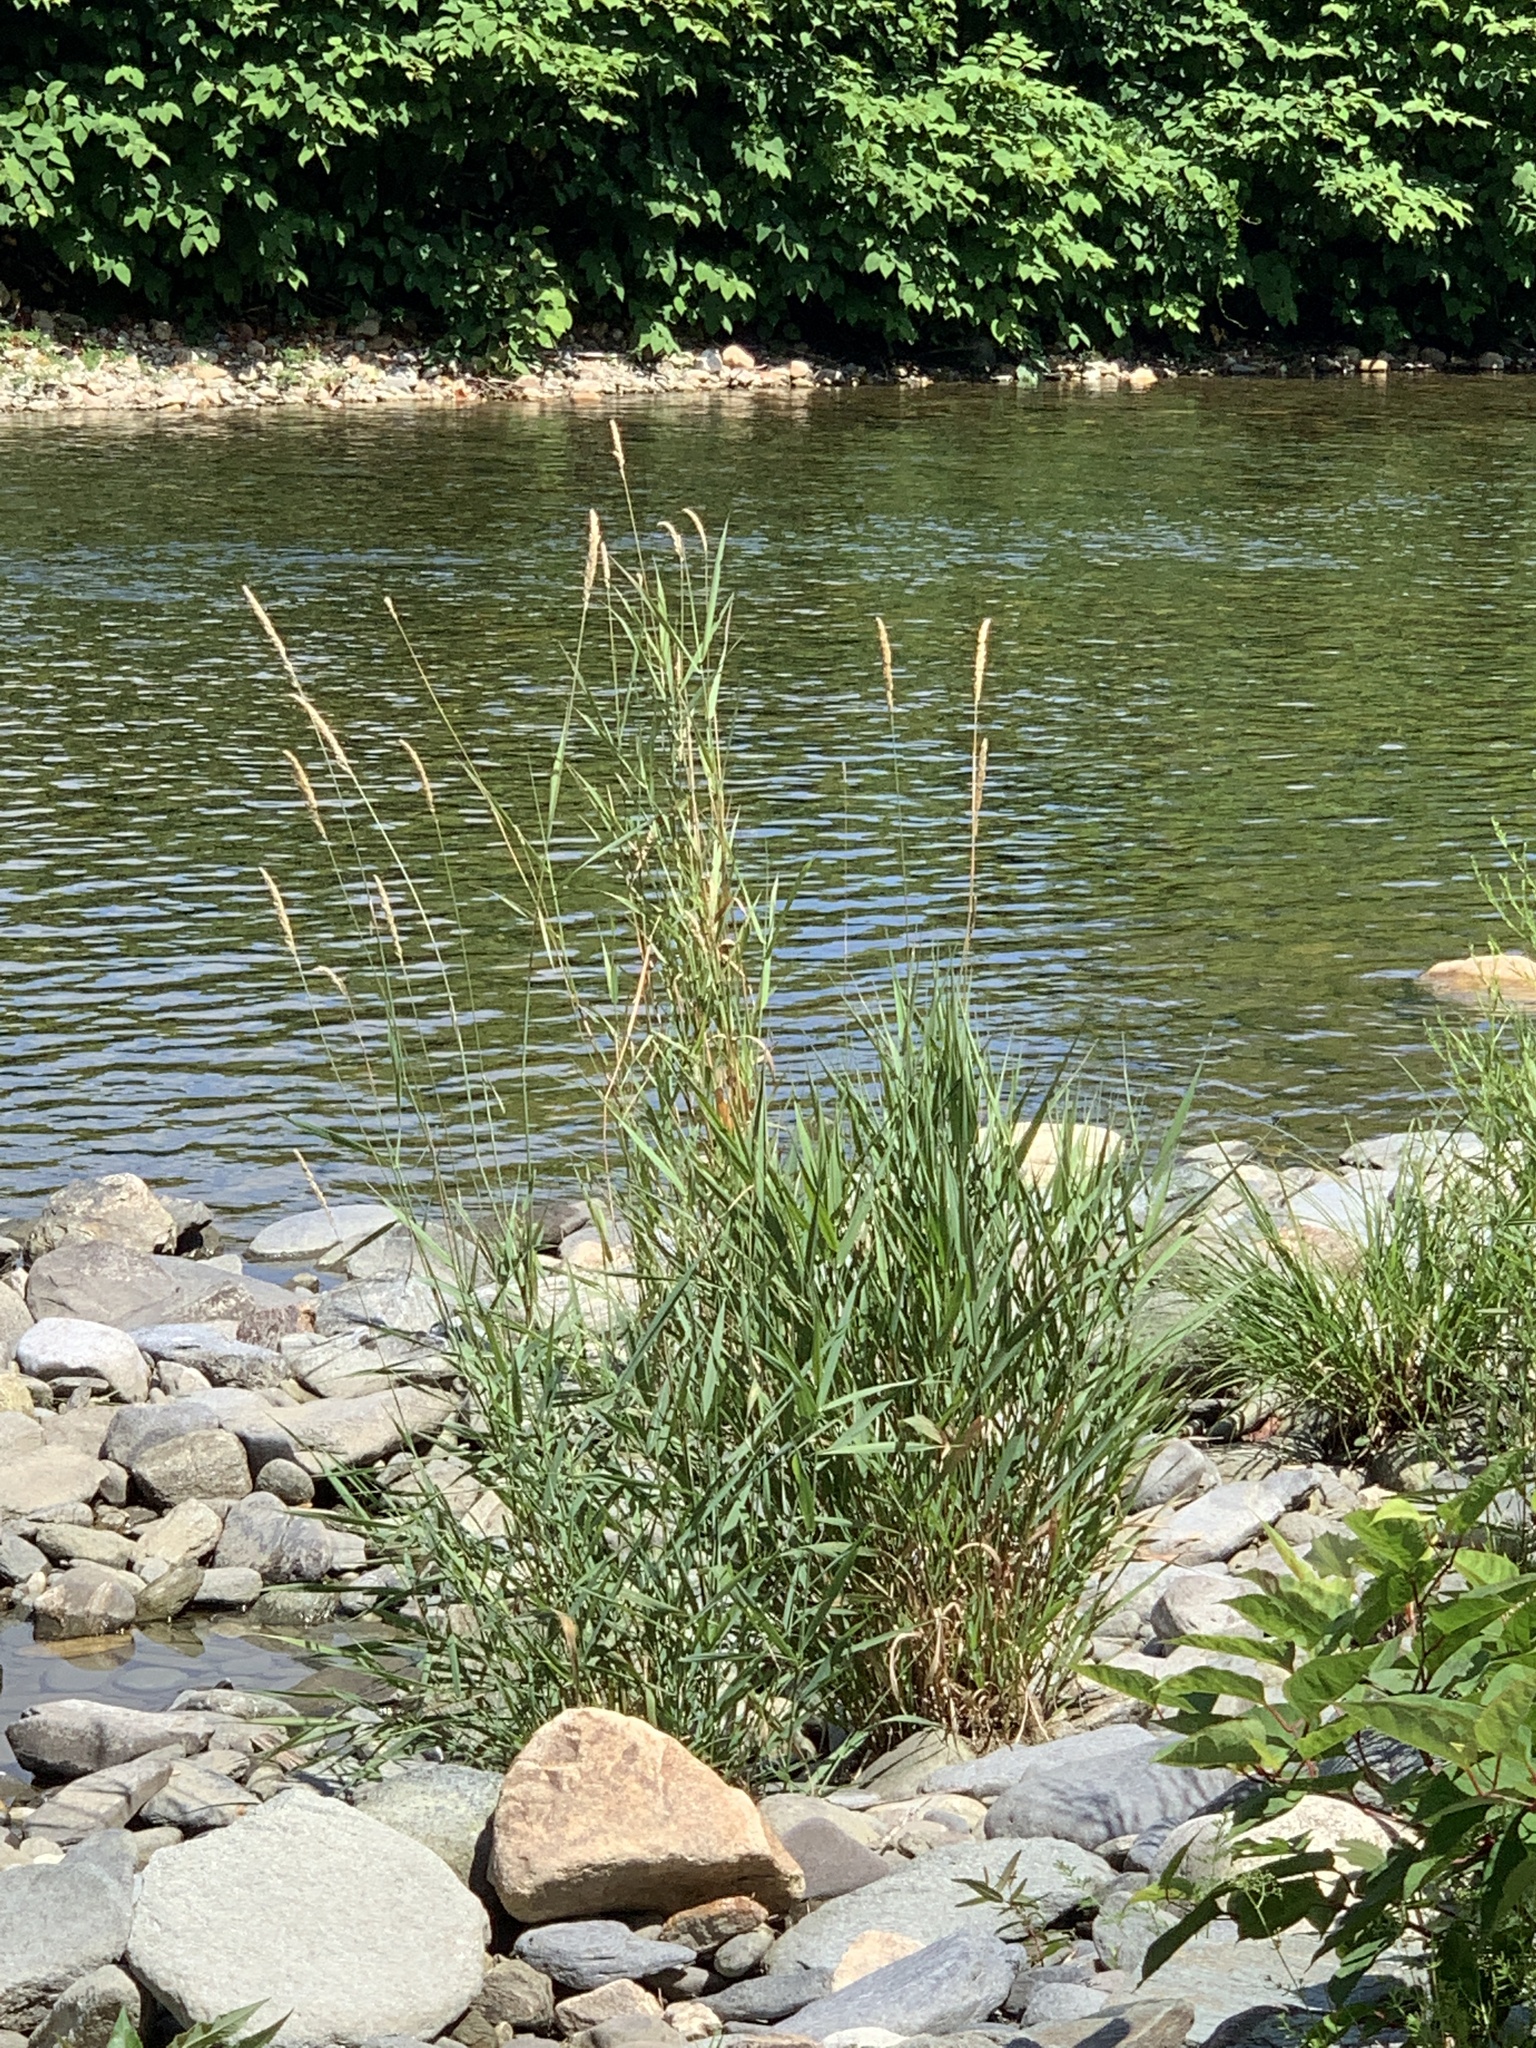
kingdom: Plantae
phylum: Tracheophyta
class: Liliopsida
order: Poales
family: Poaceae
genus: Phalaris
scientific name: Phalaris arundinacea
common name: Reed canary-grass
